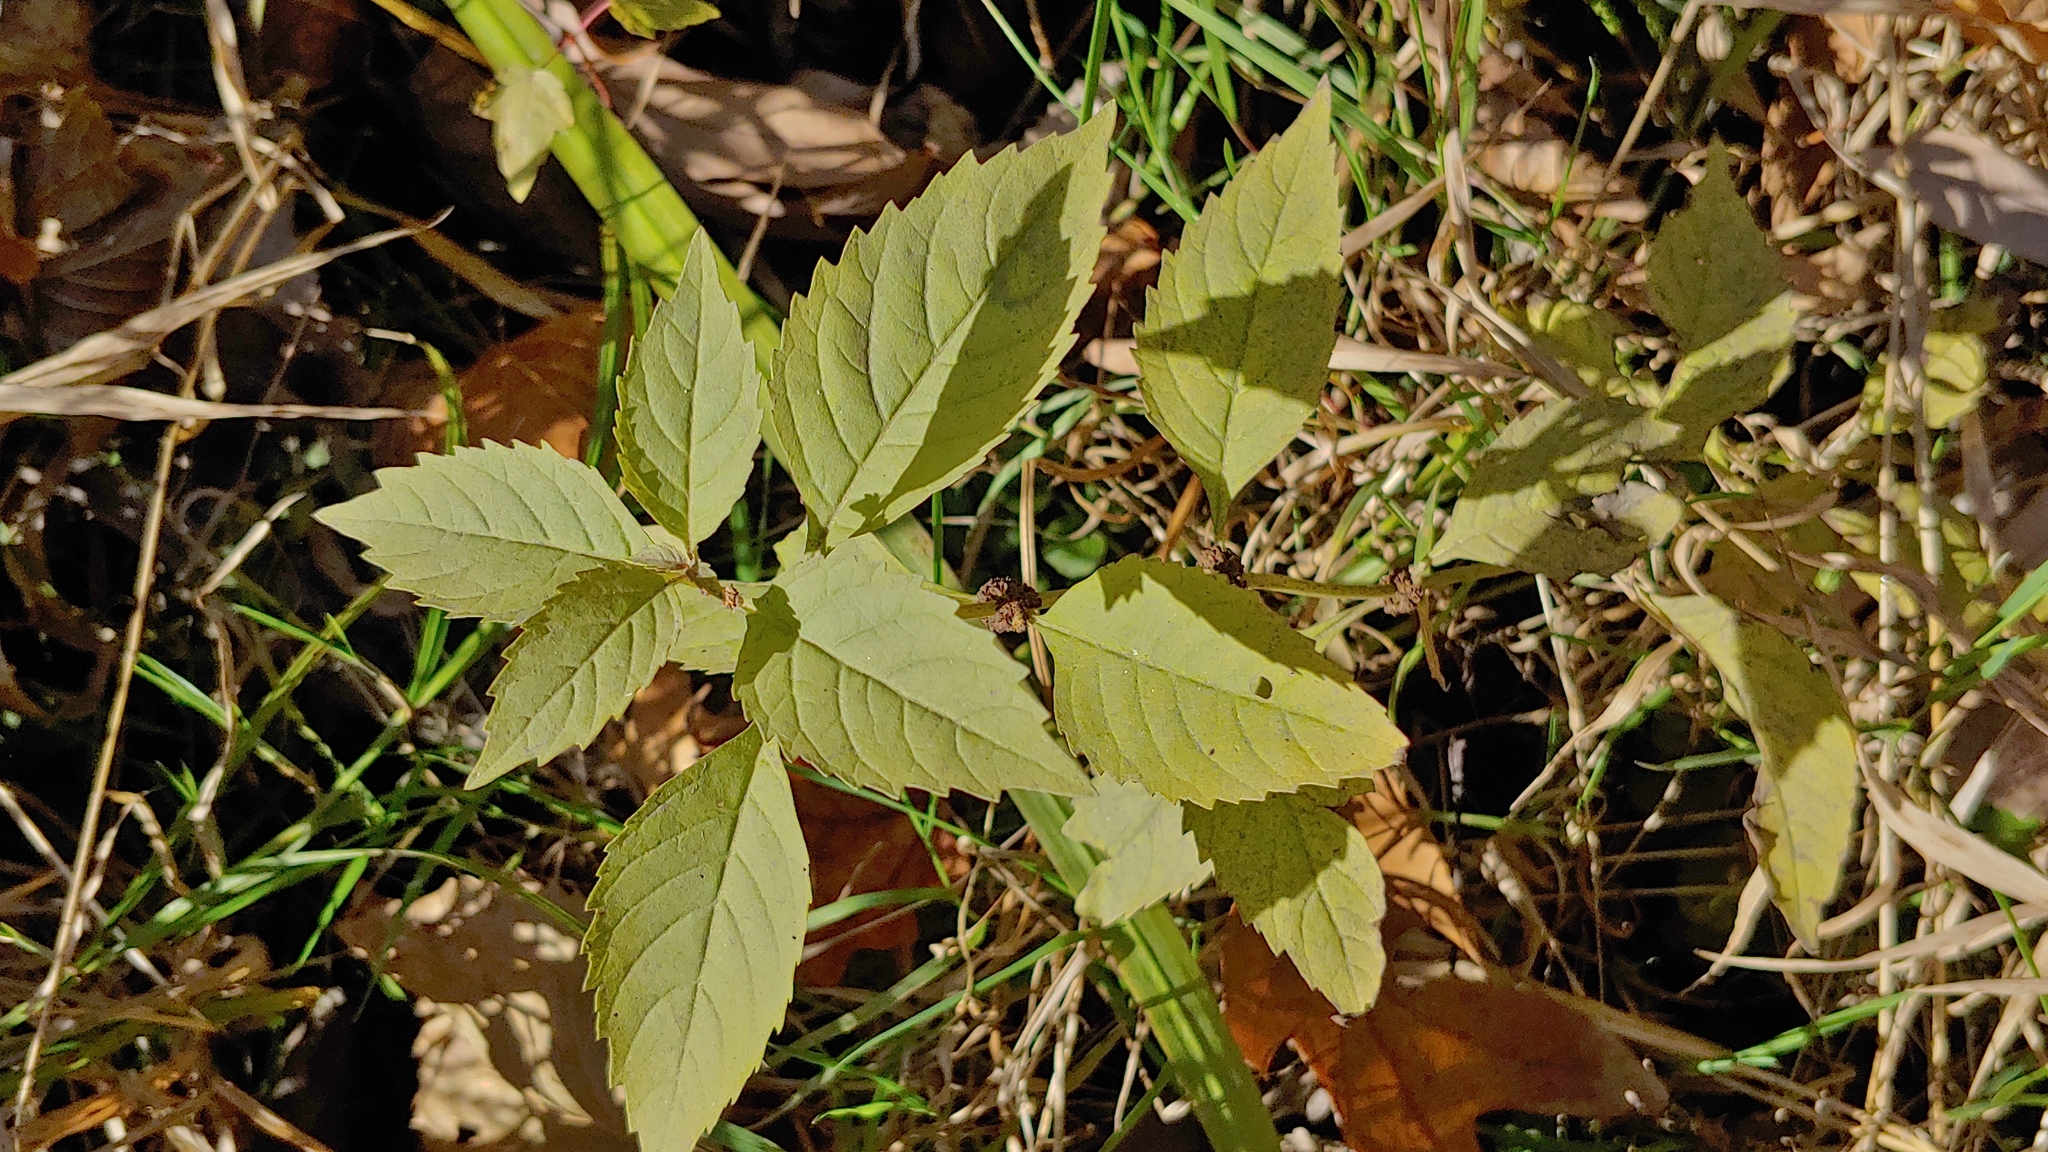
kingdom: Plantae
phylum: Tracheophyta
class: Magnoliopsida
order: Lamiales
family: Lamiaceae
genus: Lycopus
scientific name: Lycopus virginicus
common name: Bugleweed
